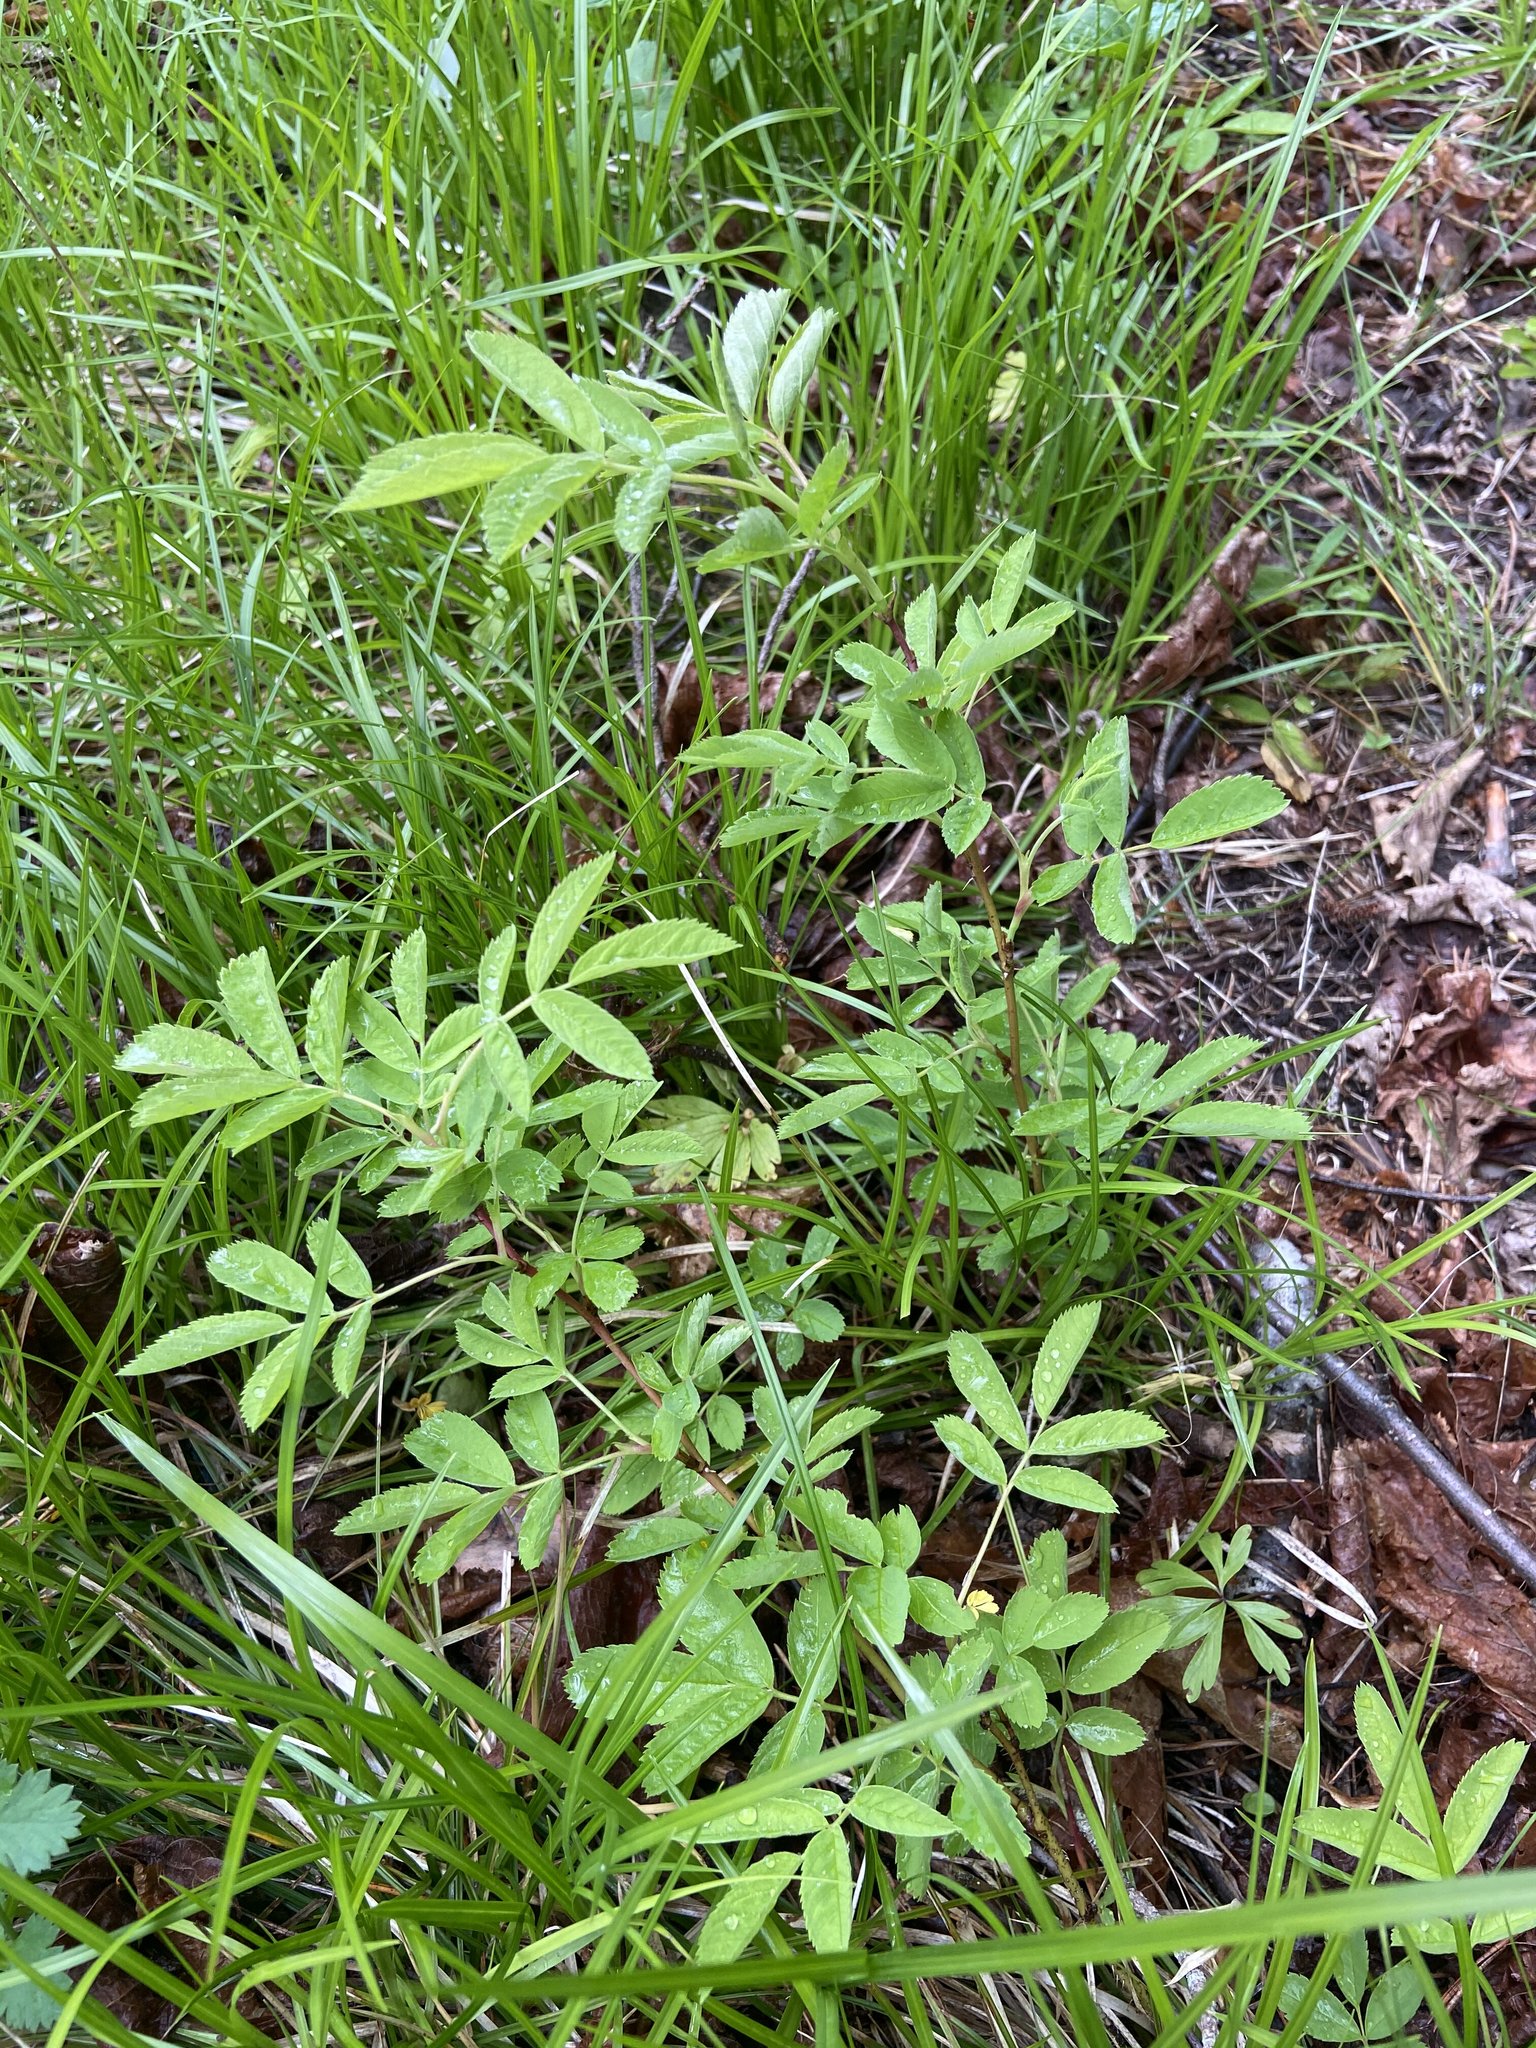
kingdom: Plantae
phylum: Tracheophyta
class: Magnoliopsida
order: Rosales
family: Rosaceae
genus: Rosa
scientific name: Rosa glabrifolia
